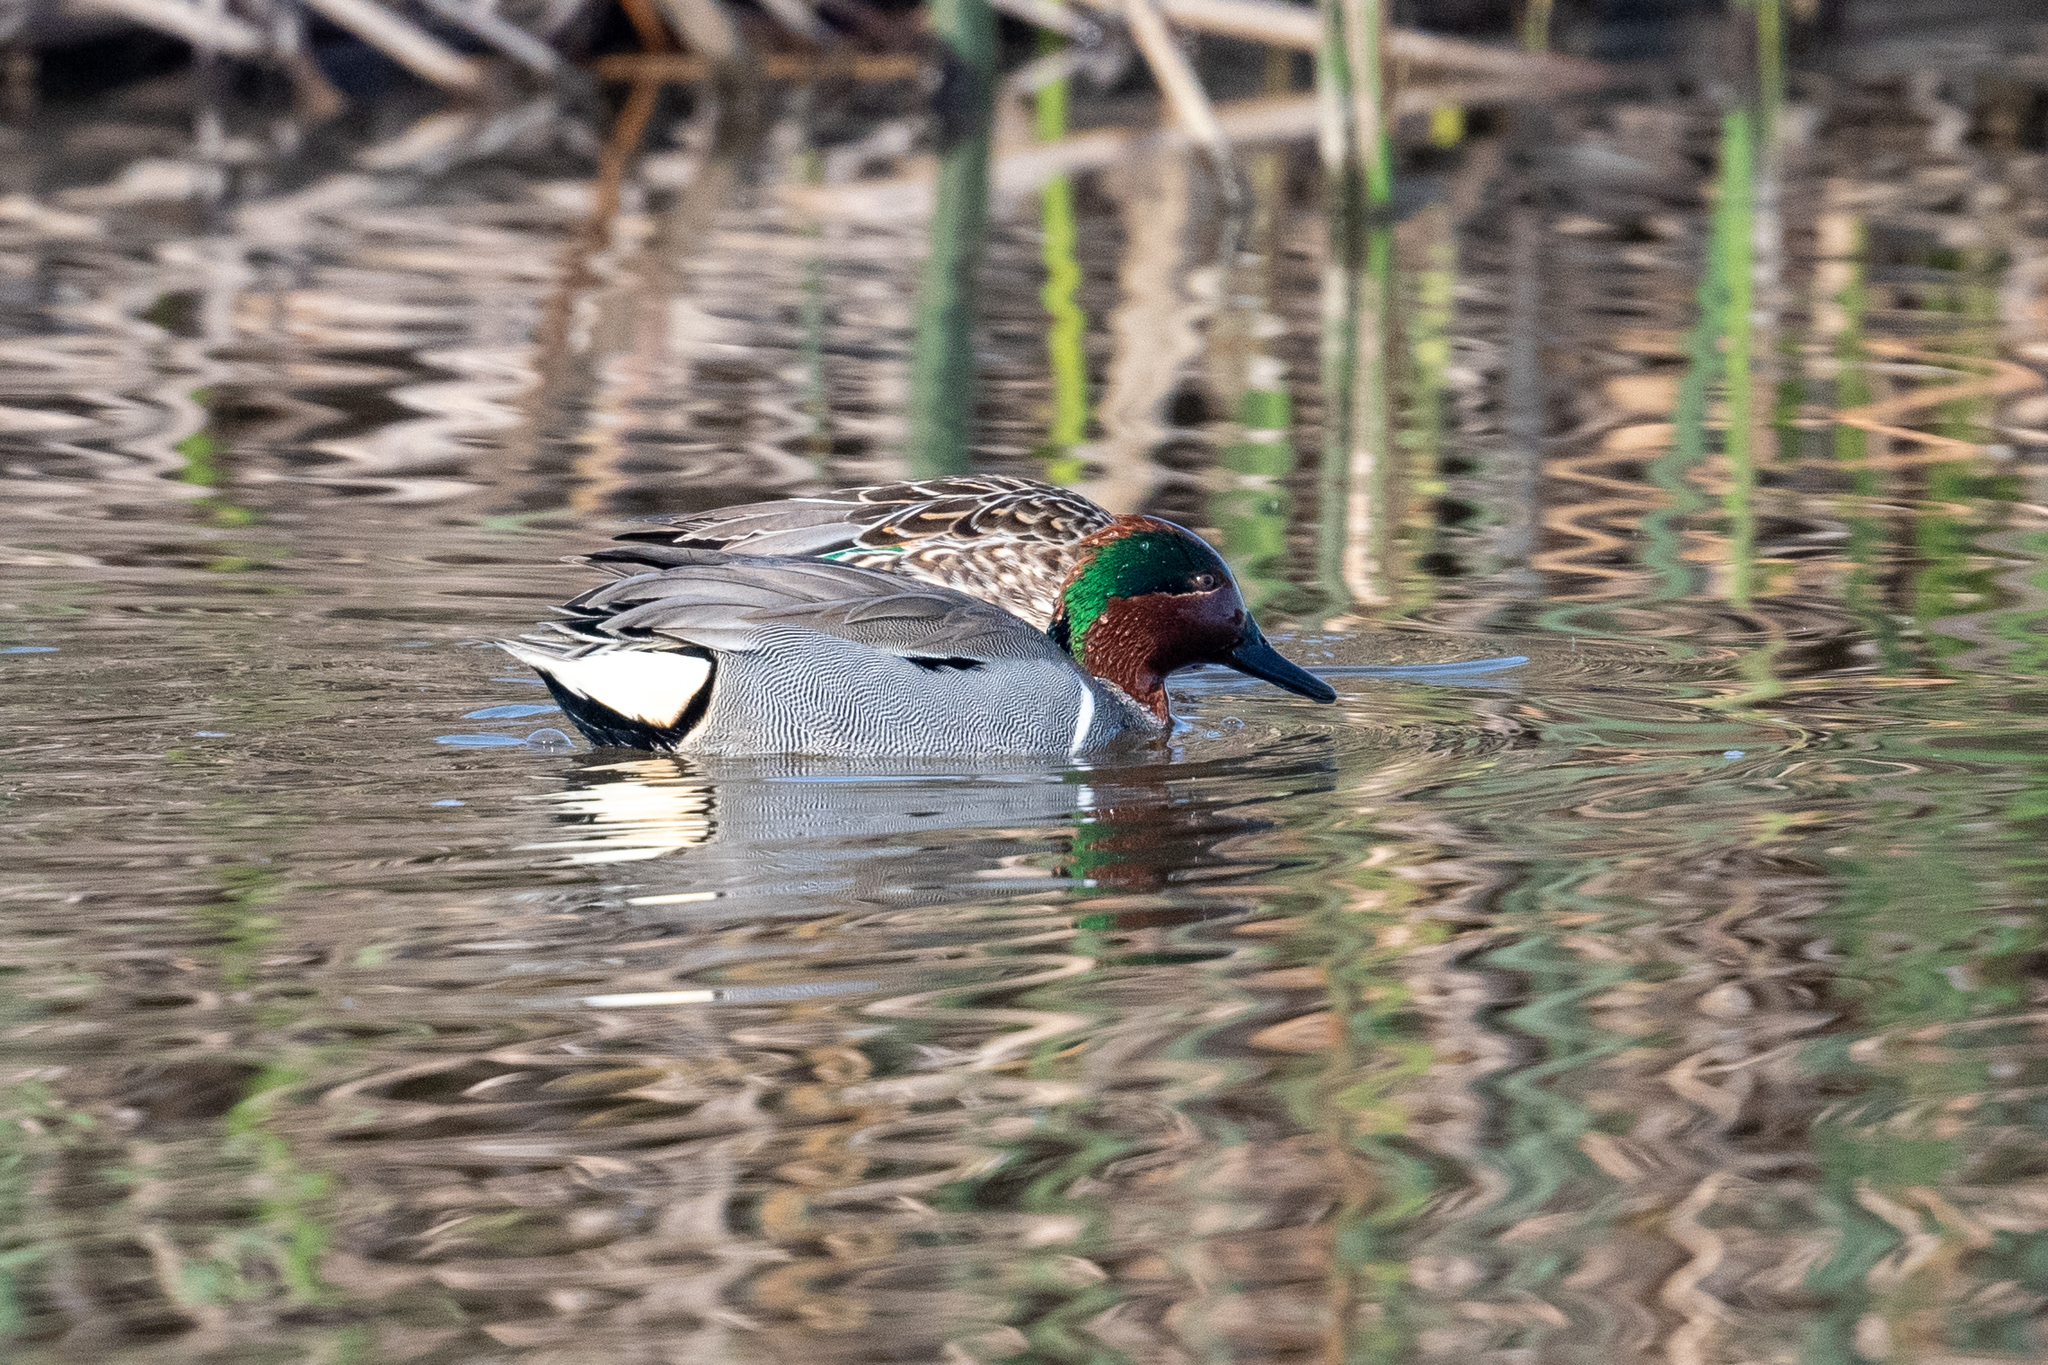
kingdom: Animalia
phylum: Chordata
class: Aves
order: Anseriformes
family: Anatidae
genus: Anas
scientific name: Anas crecca
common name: Eurasian teal
